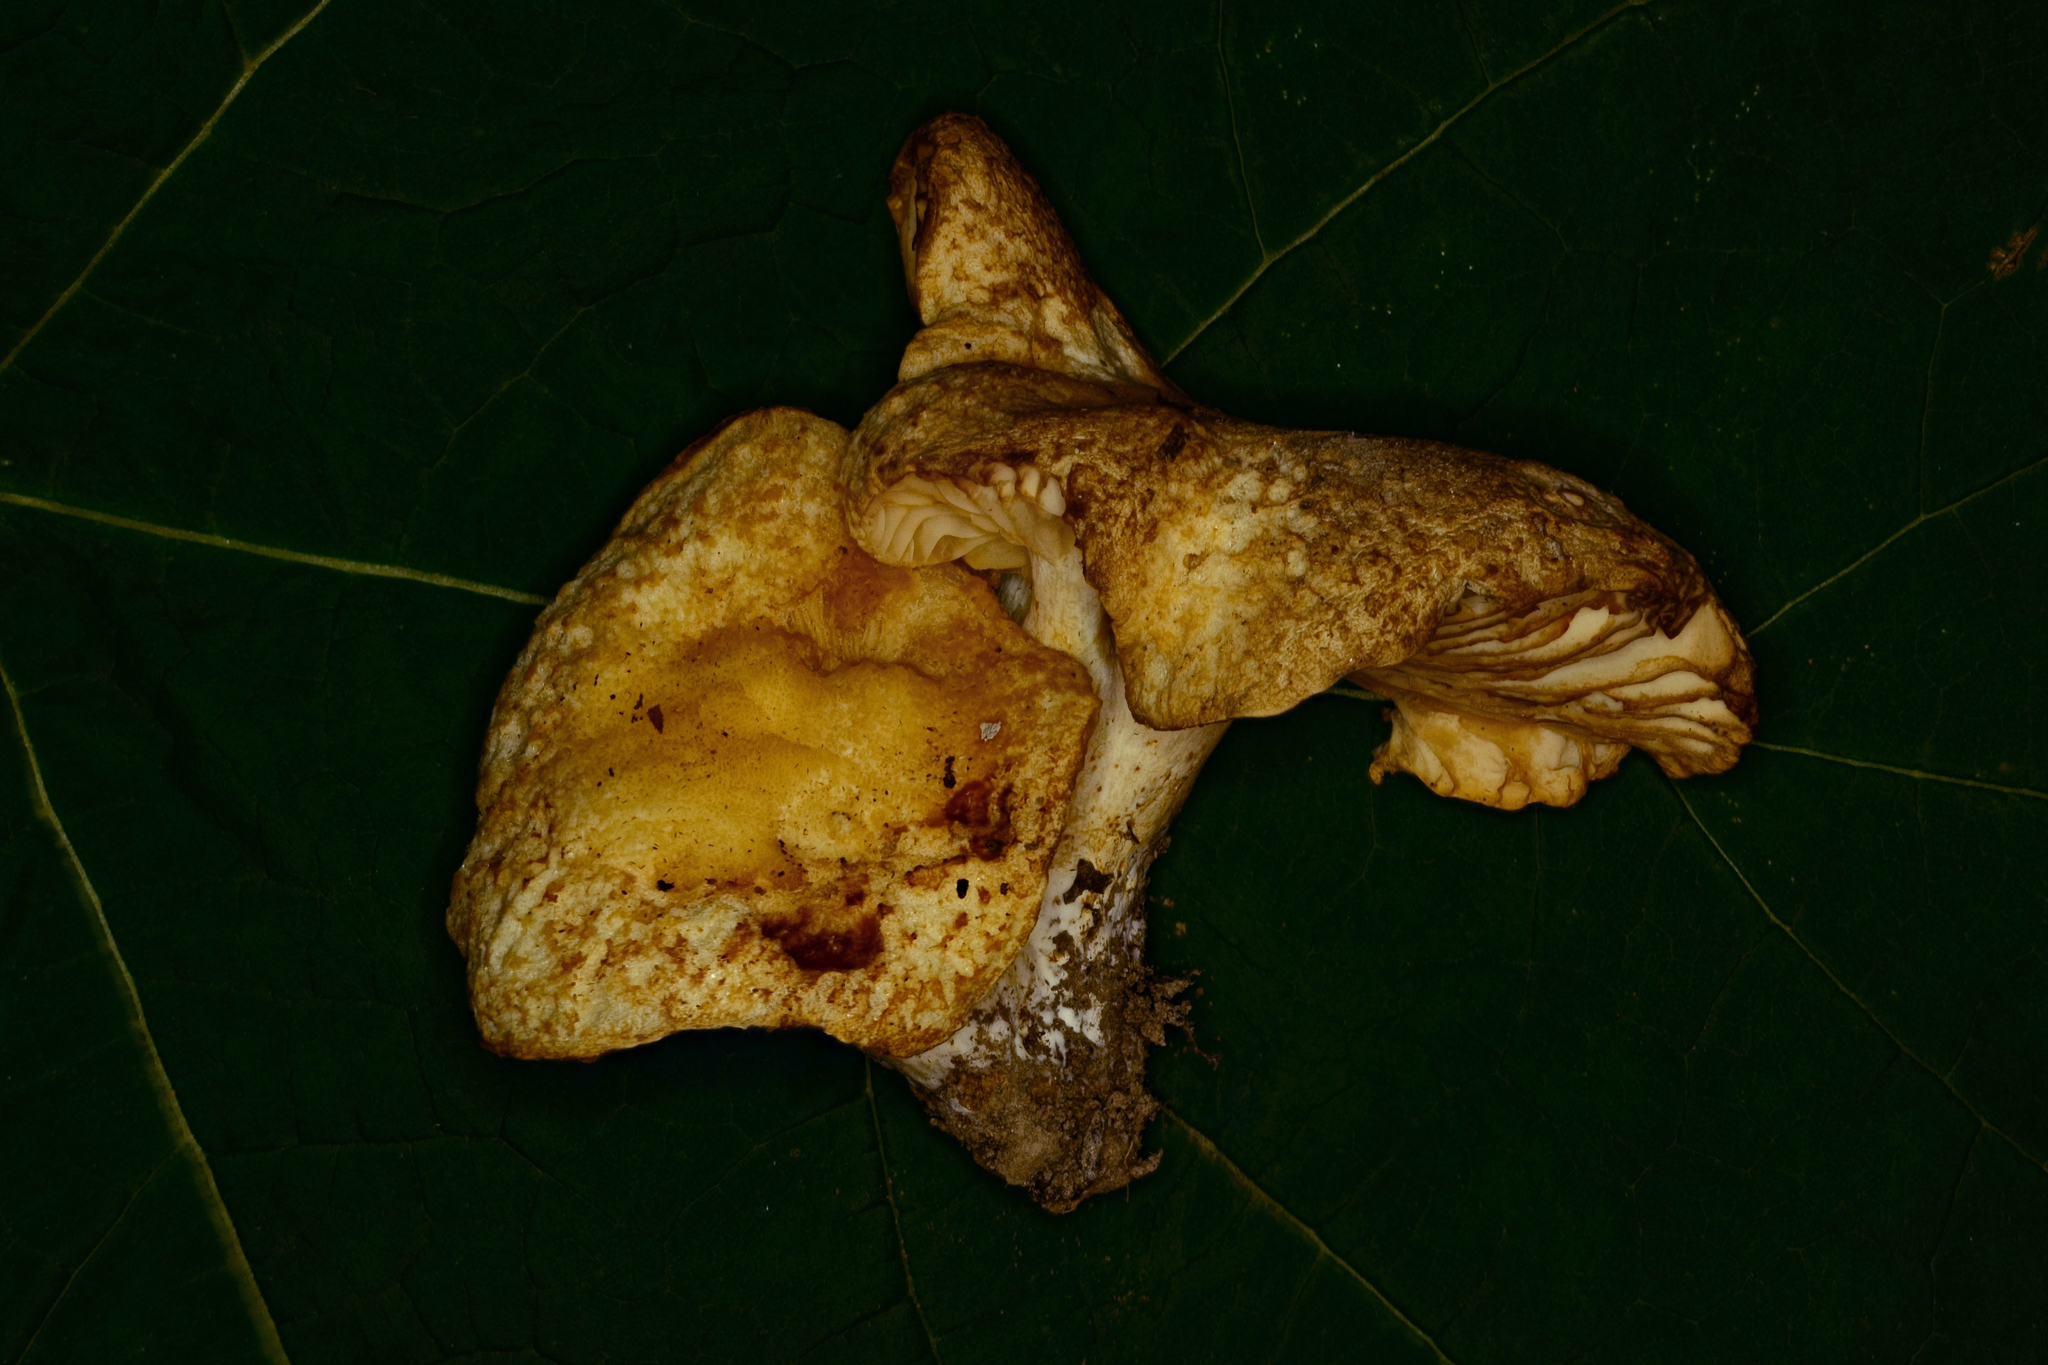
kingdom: Fungi
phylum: Basidiomycota
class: Agaricomycetes
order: Russulales
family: Russulaceae
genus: Russula
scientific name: Russula earlei
